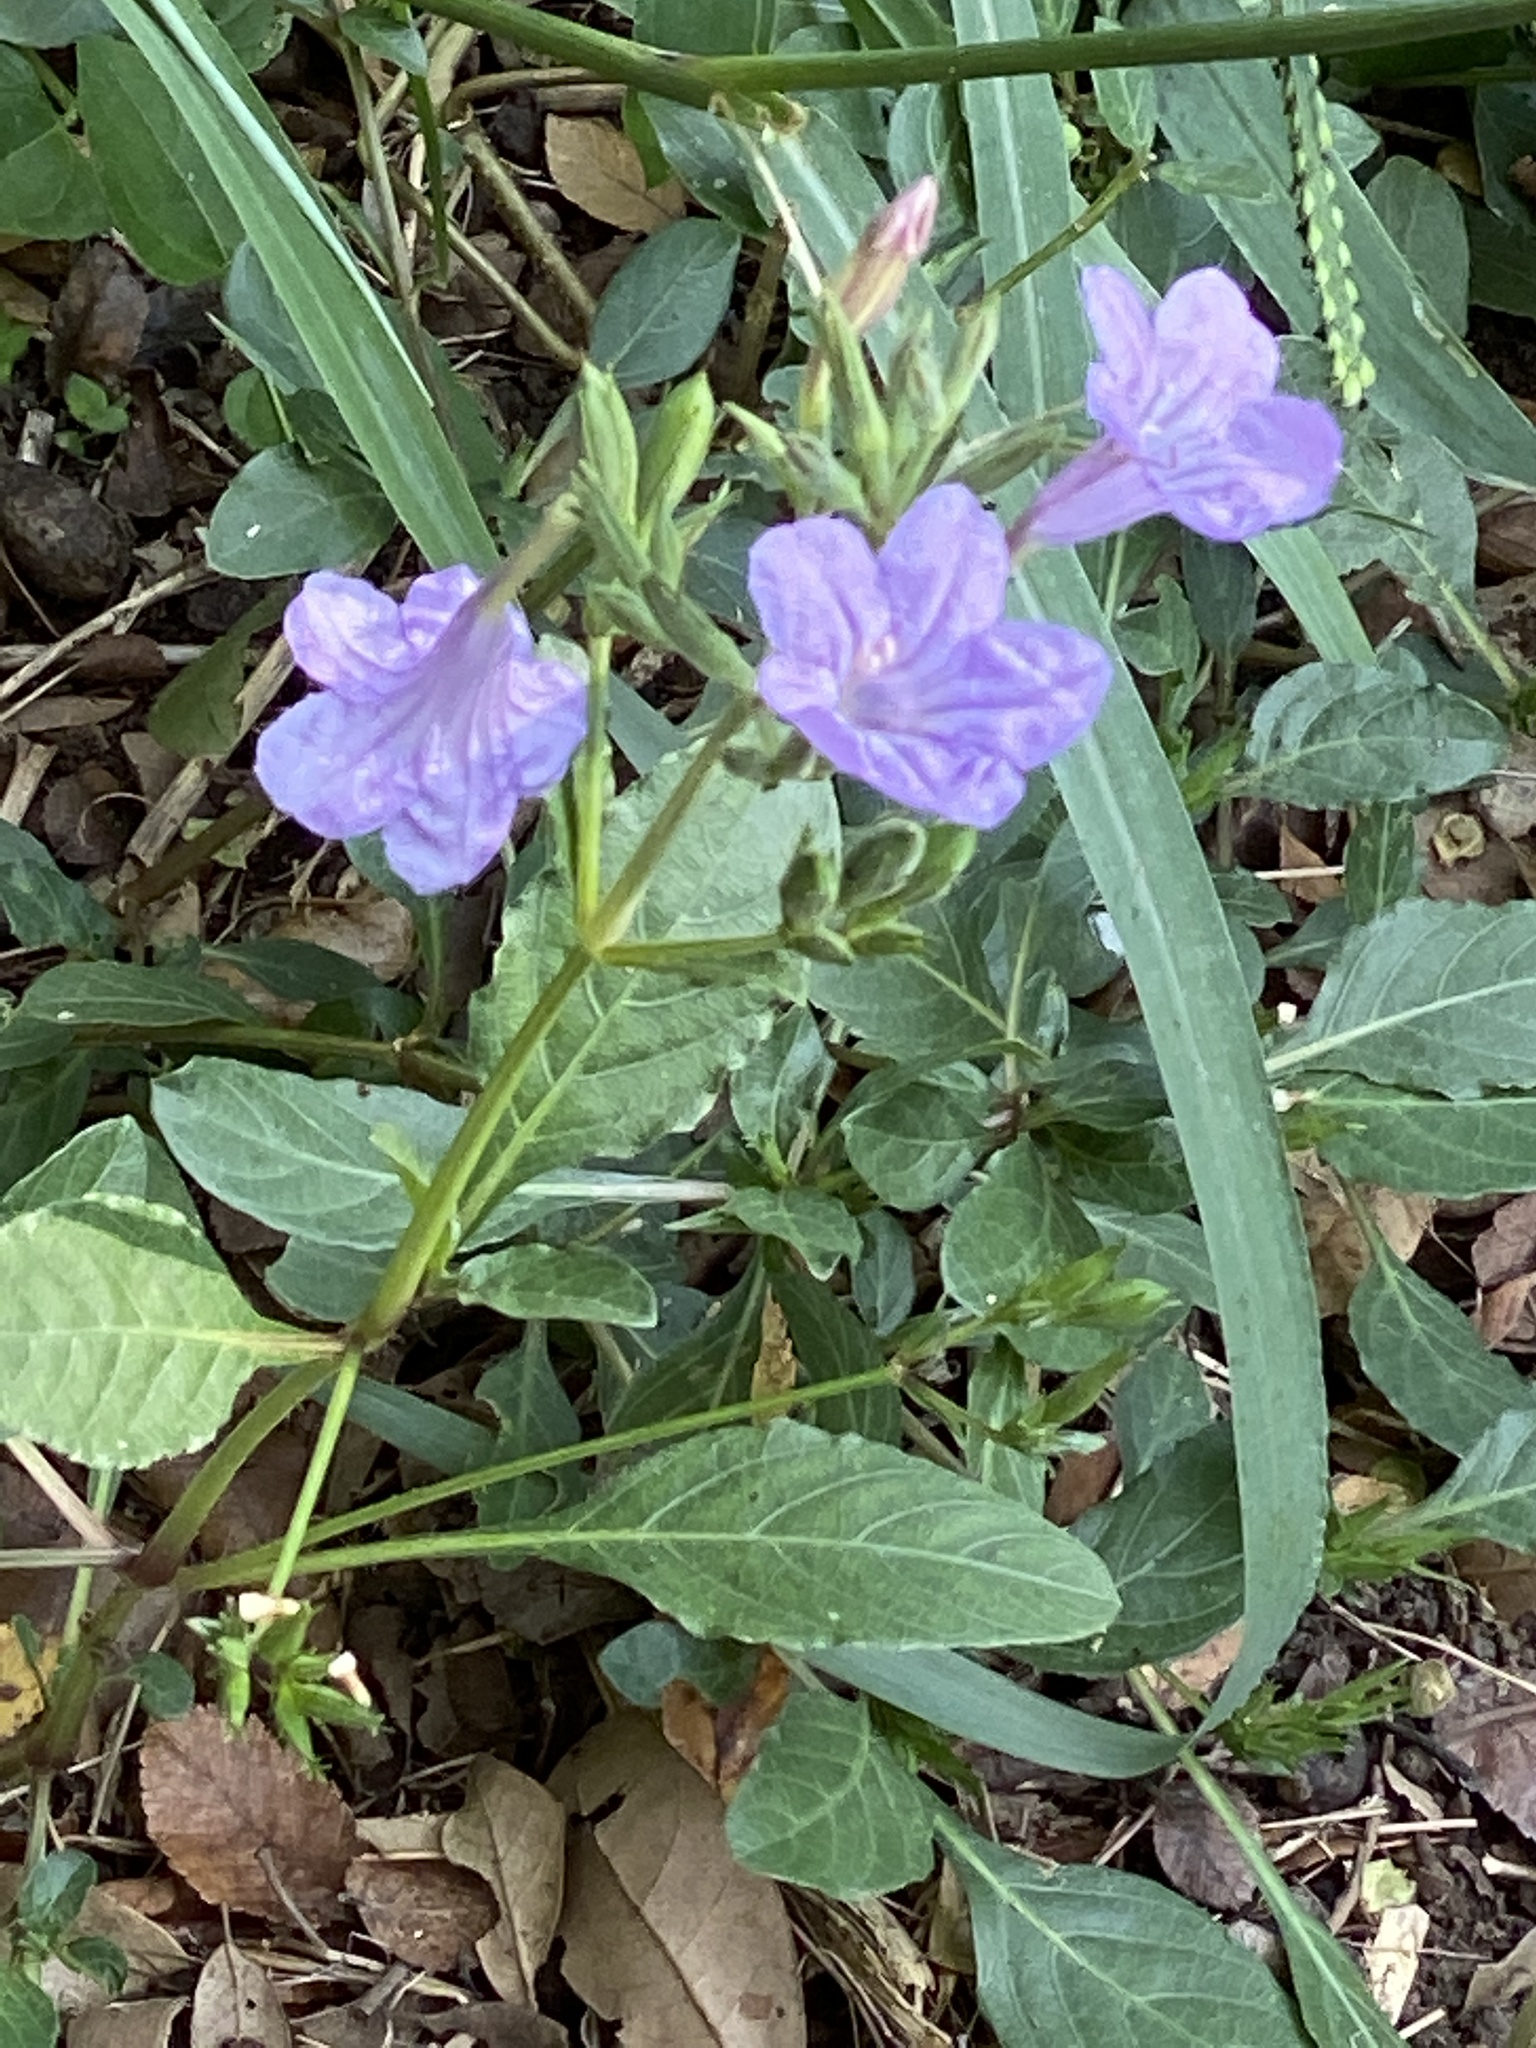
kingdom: Plantae
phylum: Tracheophyta
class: Magnoliopsida
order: Lamiales
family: Acanthaceae
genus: Ruellia
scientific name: Ruellia ciliatiflora
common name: Hairyflower wild petunia
